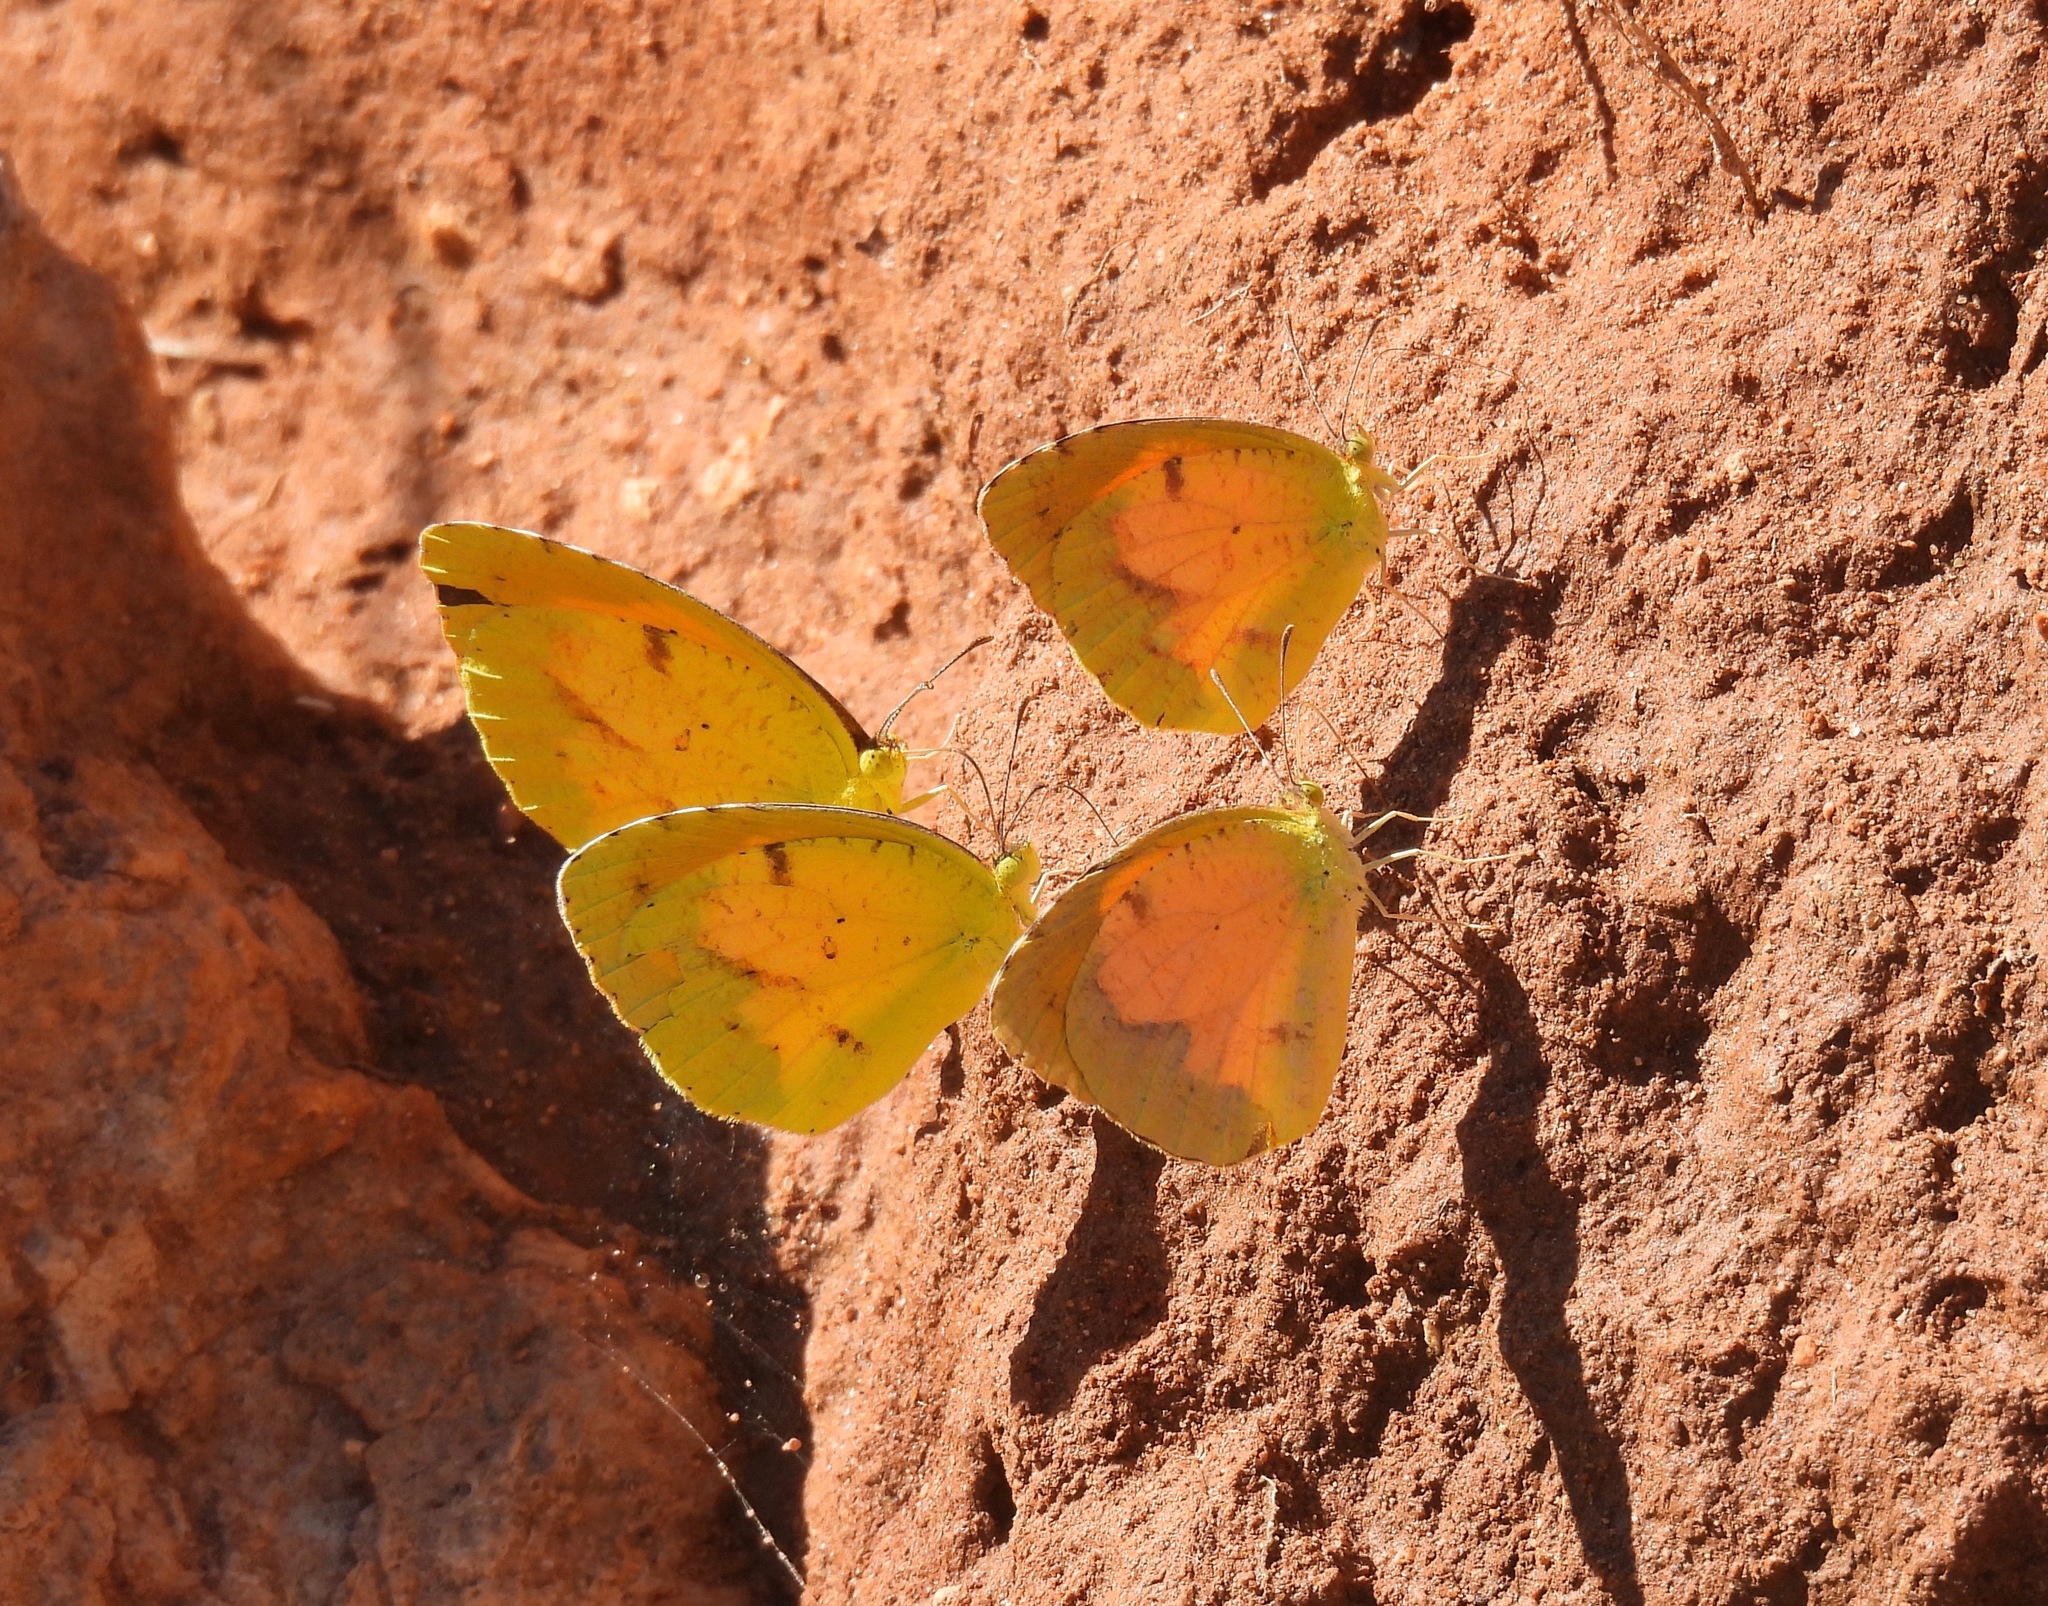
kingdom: Animalia
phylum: Arthropoda
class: Insecta
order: Lepidoptera
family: Pieridae
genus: Abaeis
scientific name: Abaeis nicippe
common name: Sleepy orange
